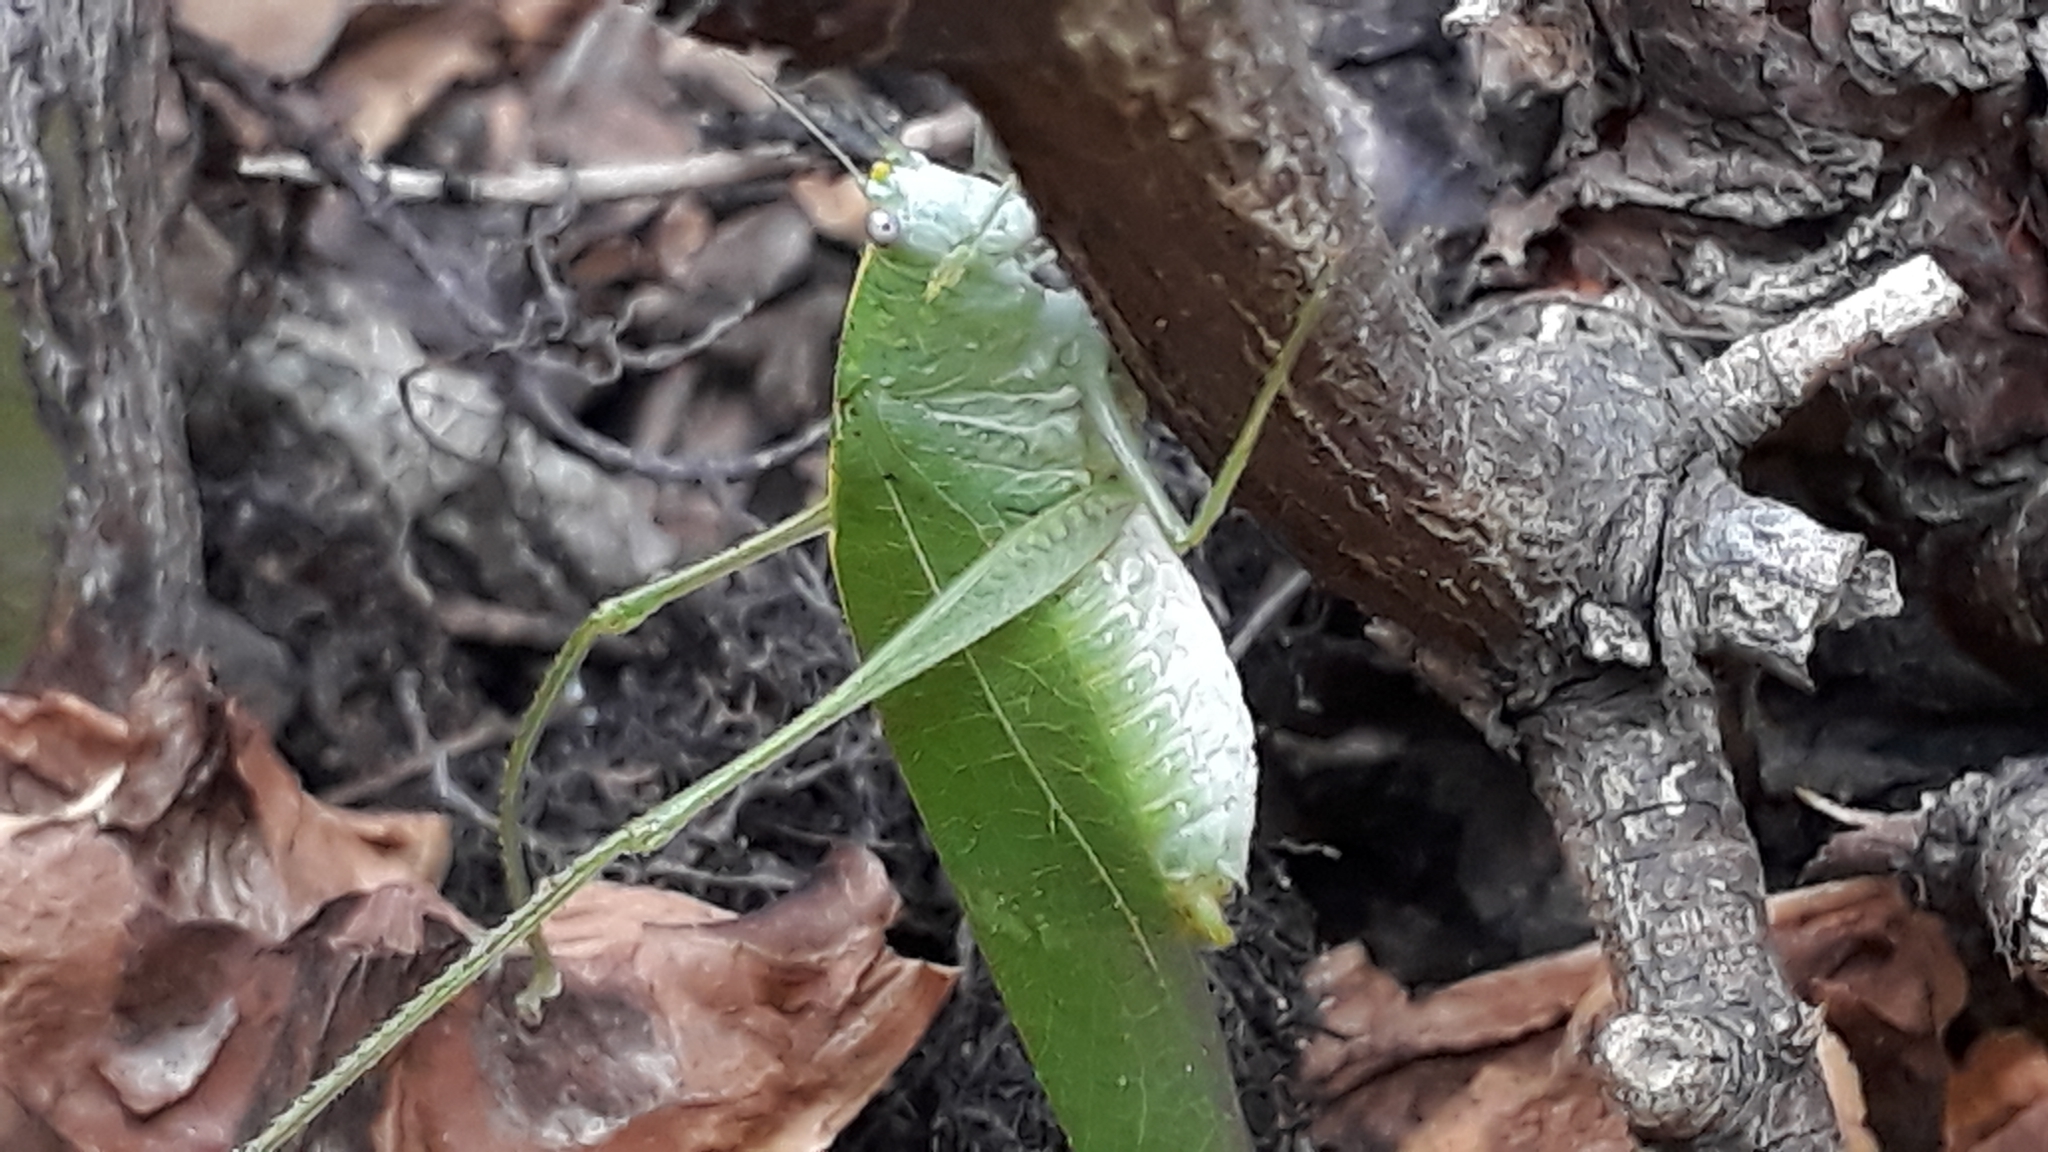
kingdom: Animalia
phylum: Arthropoda
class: Insecta
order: Orthoptera
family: Tettigoniidae
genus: Grammadera
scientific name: Grammadera clara
